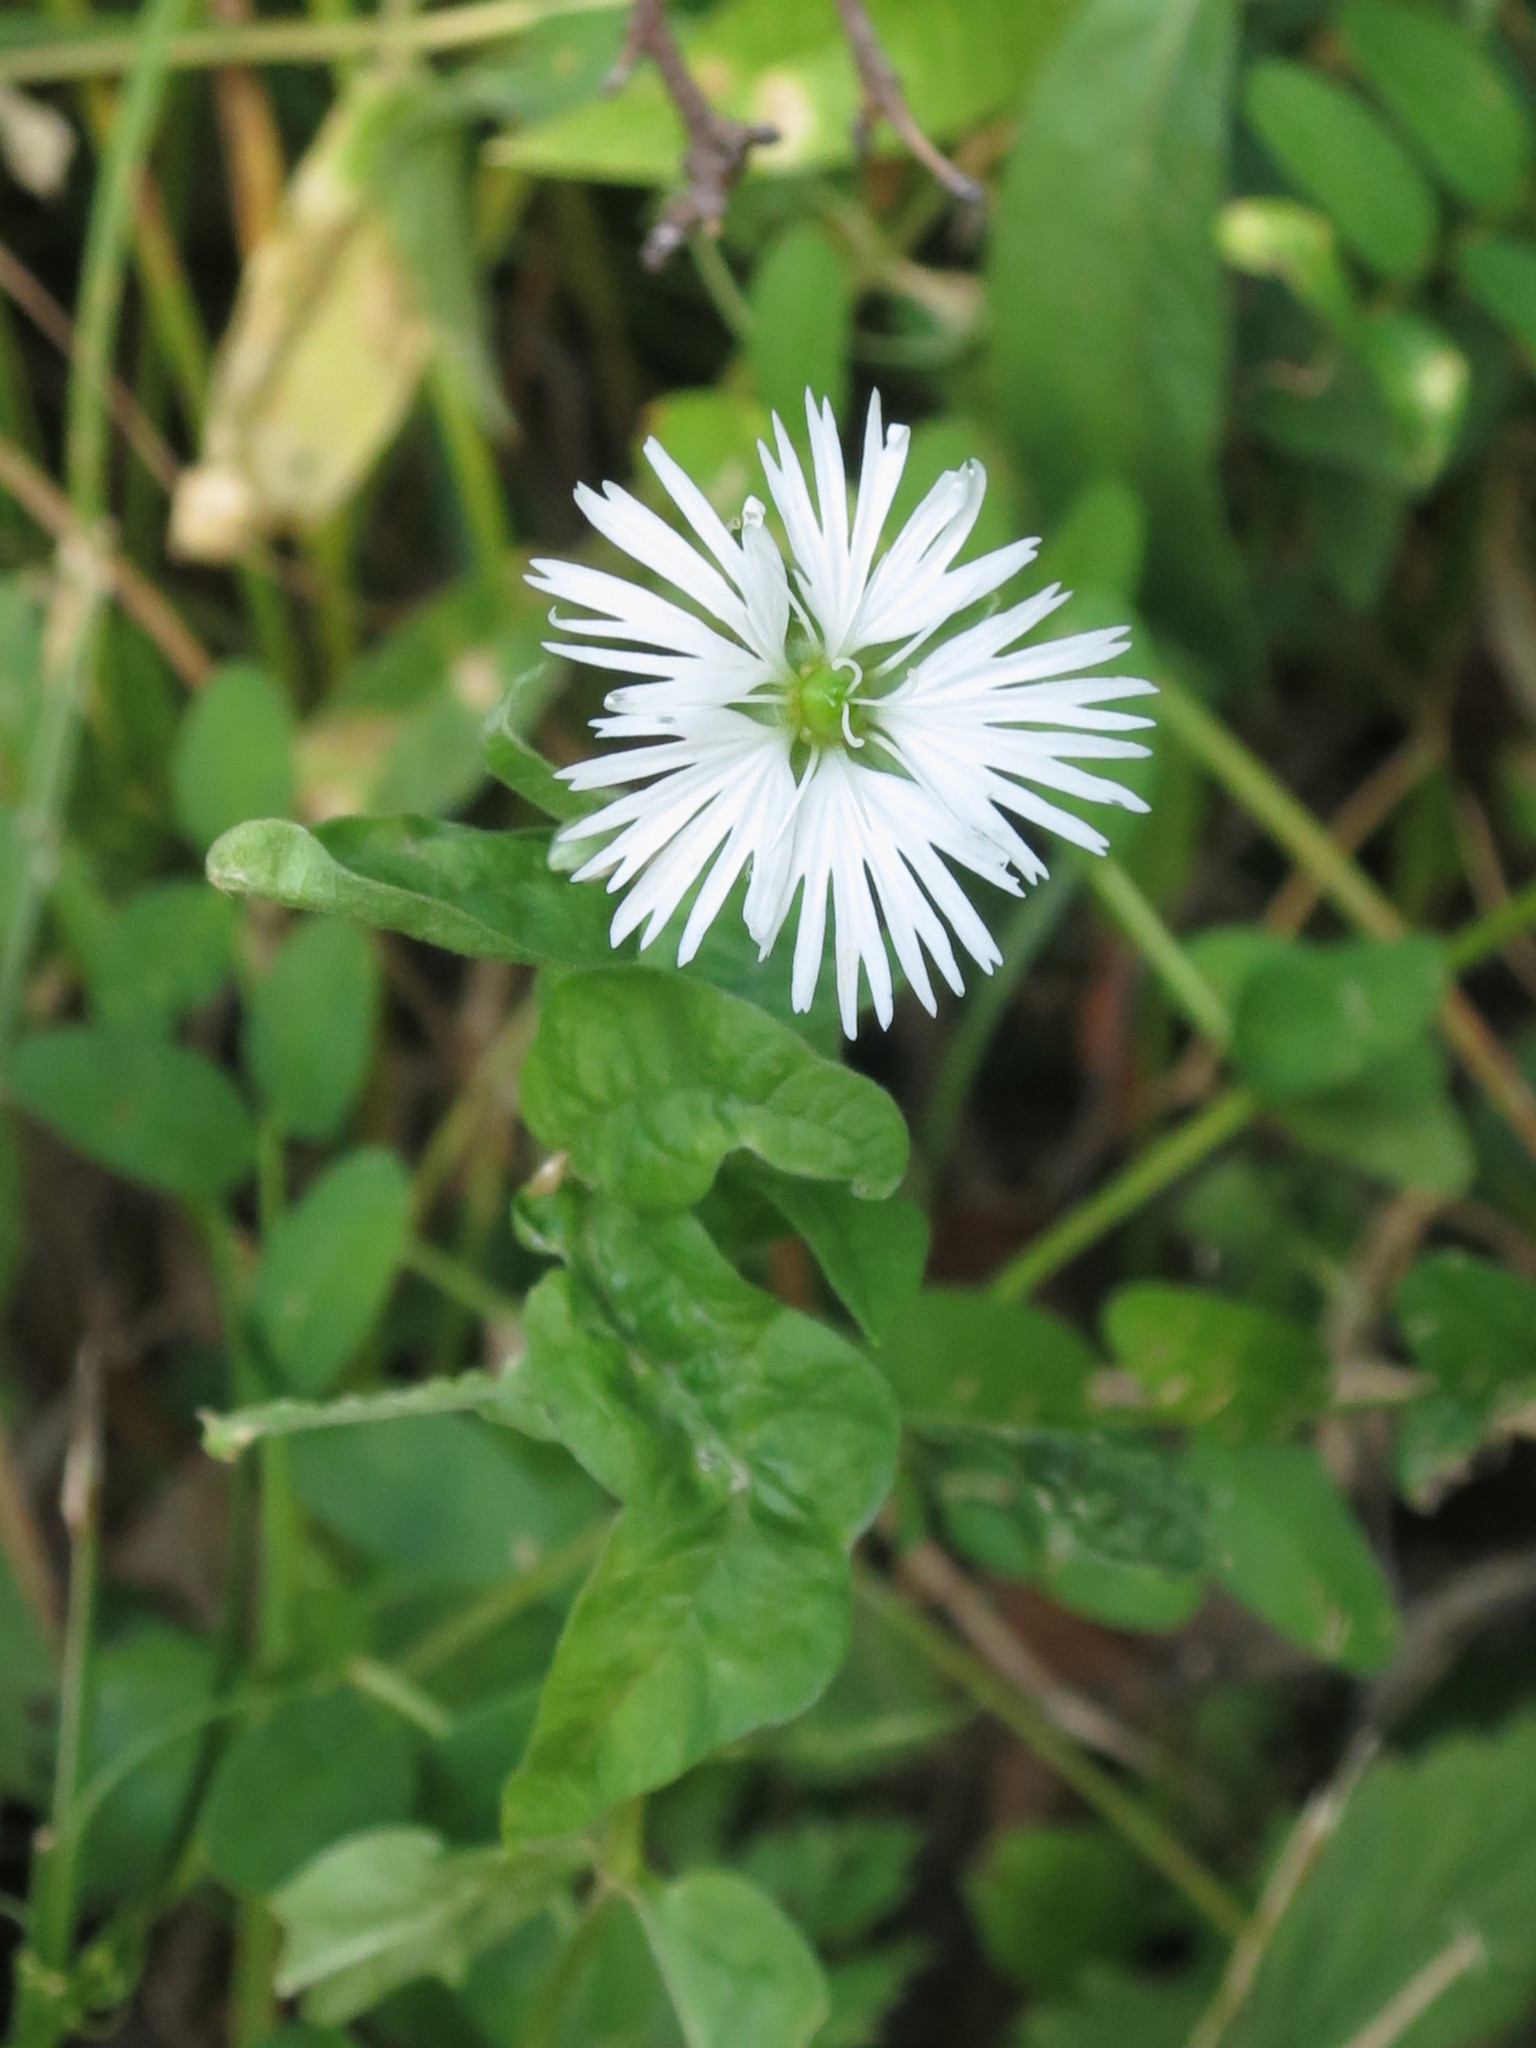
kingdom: Plantae
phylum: Tracheophyta
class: Magnoliopsida
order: Caryophyllales
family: Caryophyllaceae
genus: Stellaria
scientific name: Stellaria radians
